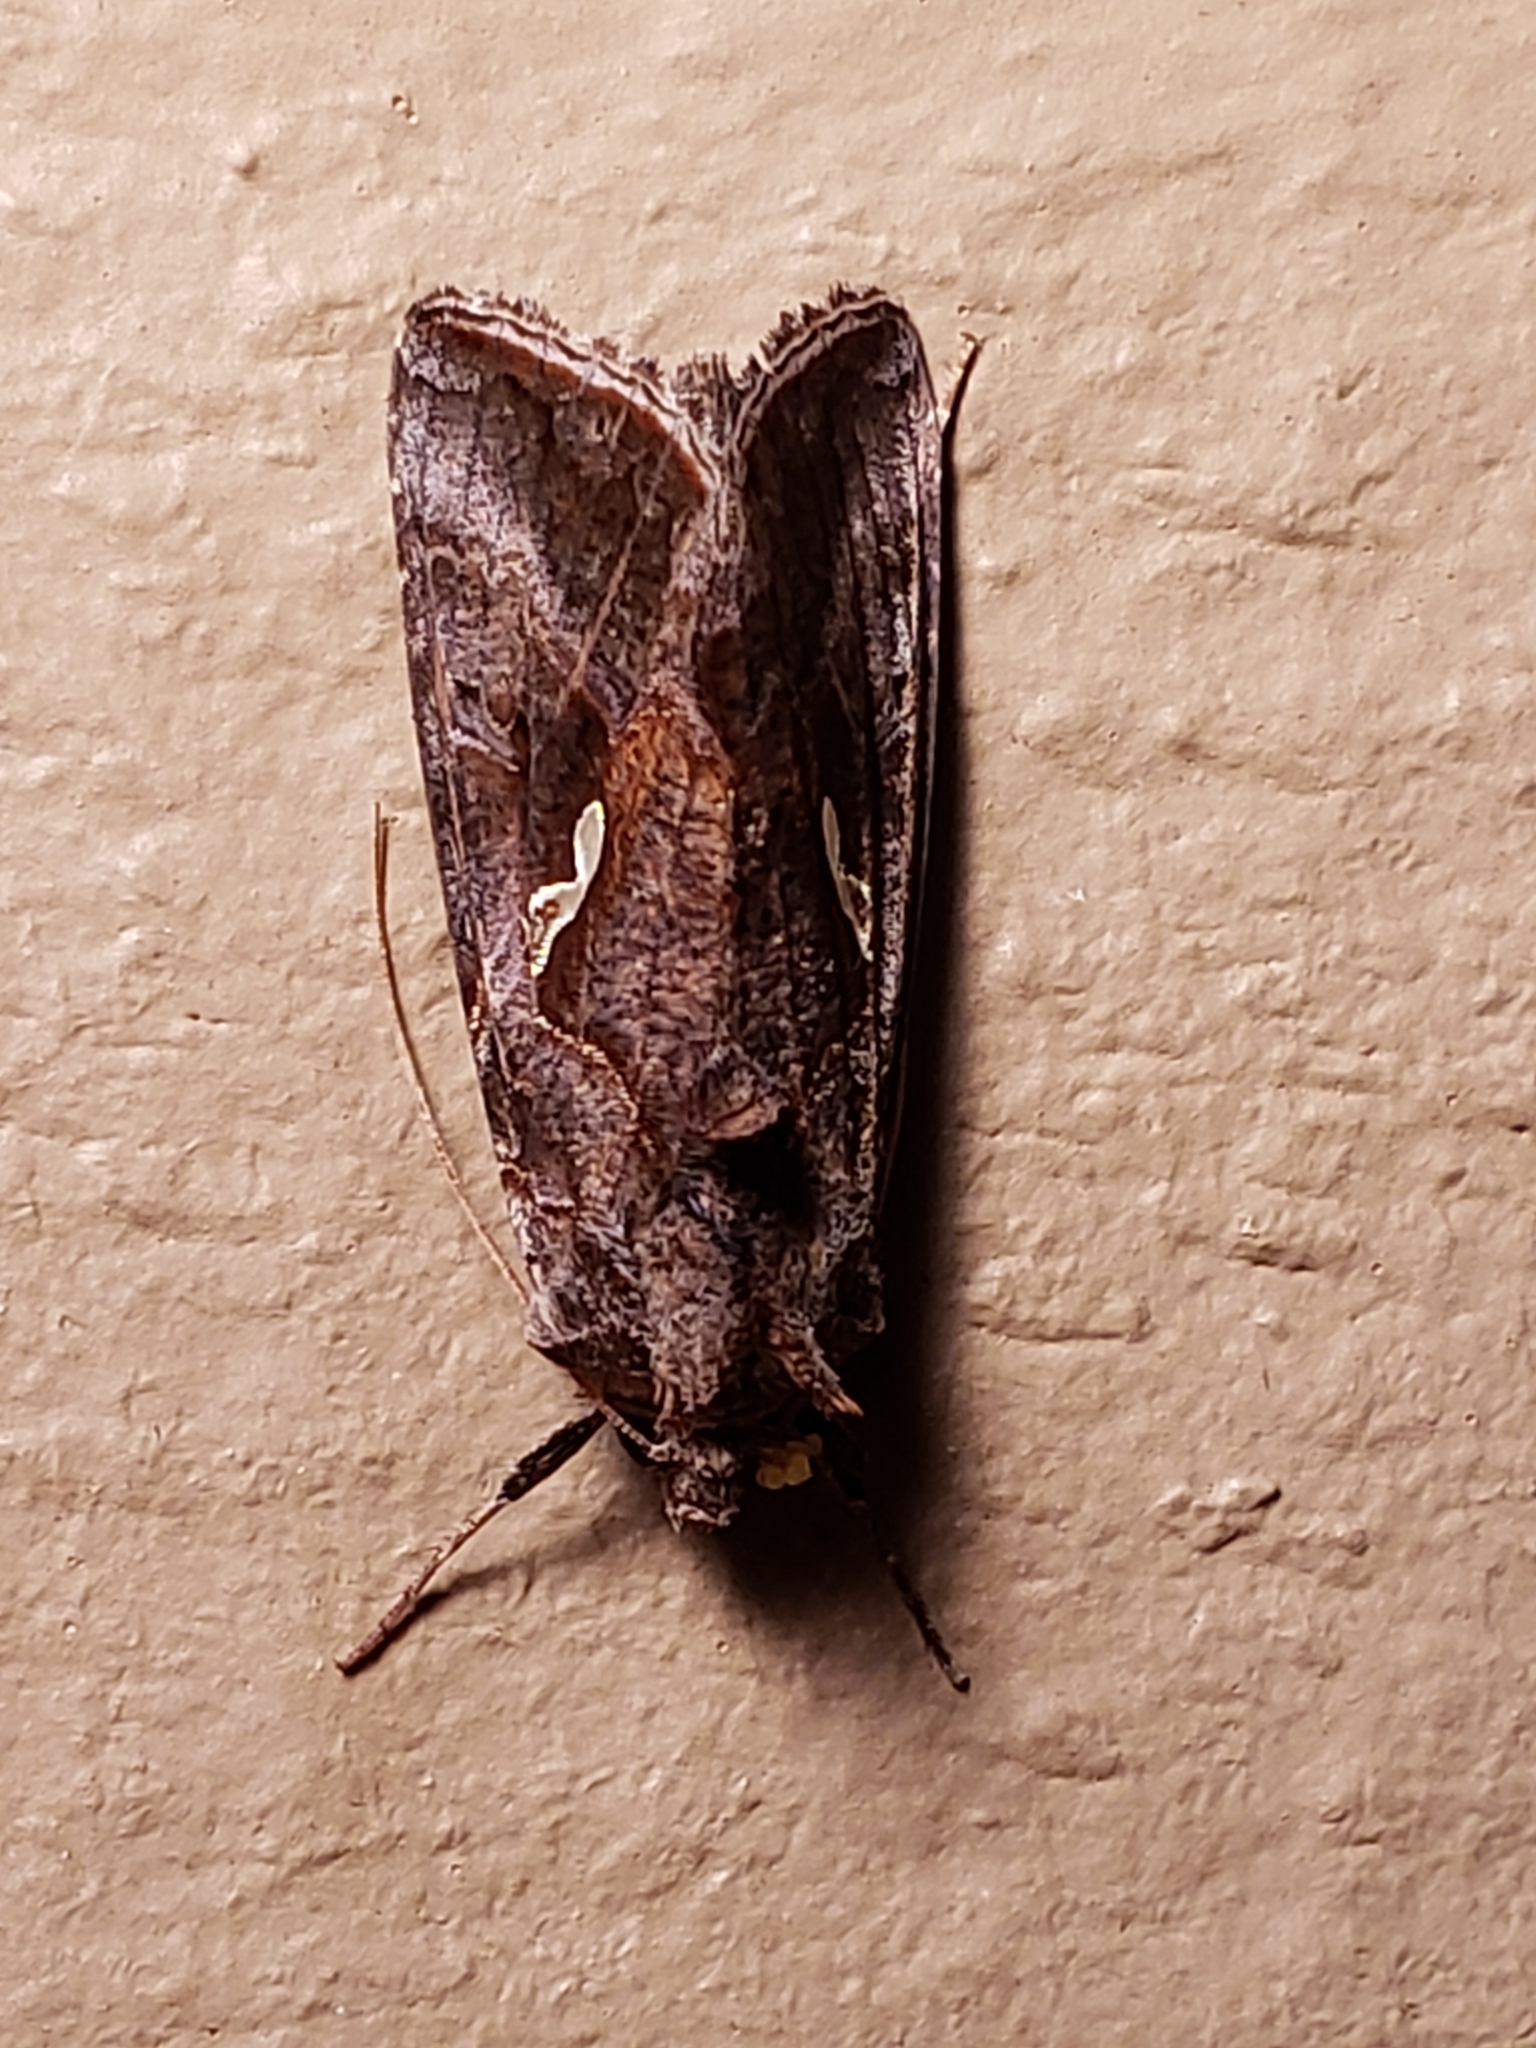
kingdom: Animalia
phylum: Arthropoda
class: Insecta
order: Lepidoptera
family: Noctuidae
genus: Autographa
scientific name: Autographa precationis
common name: Common looper moth
